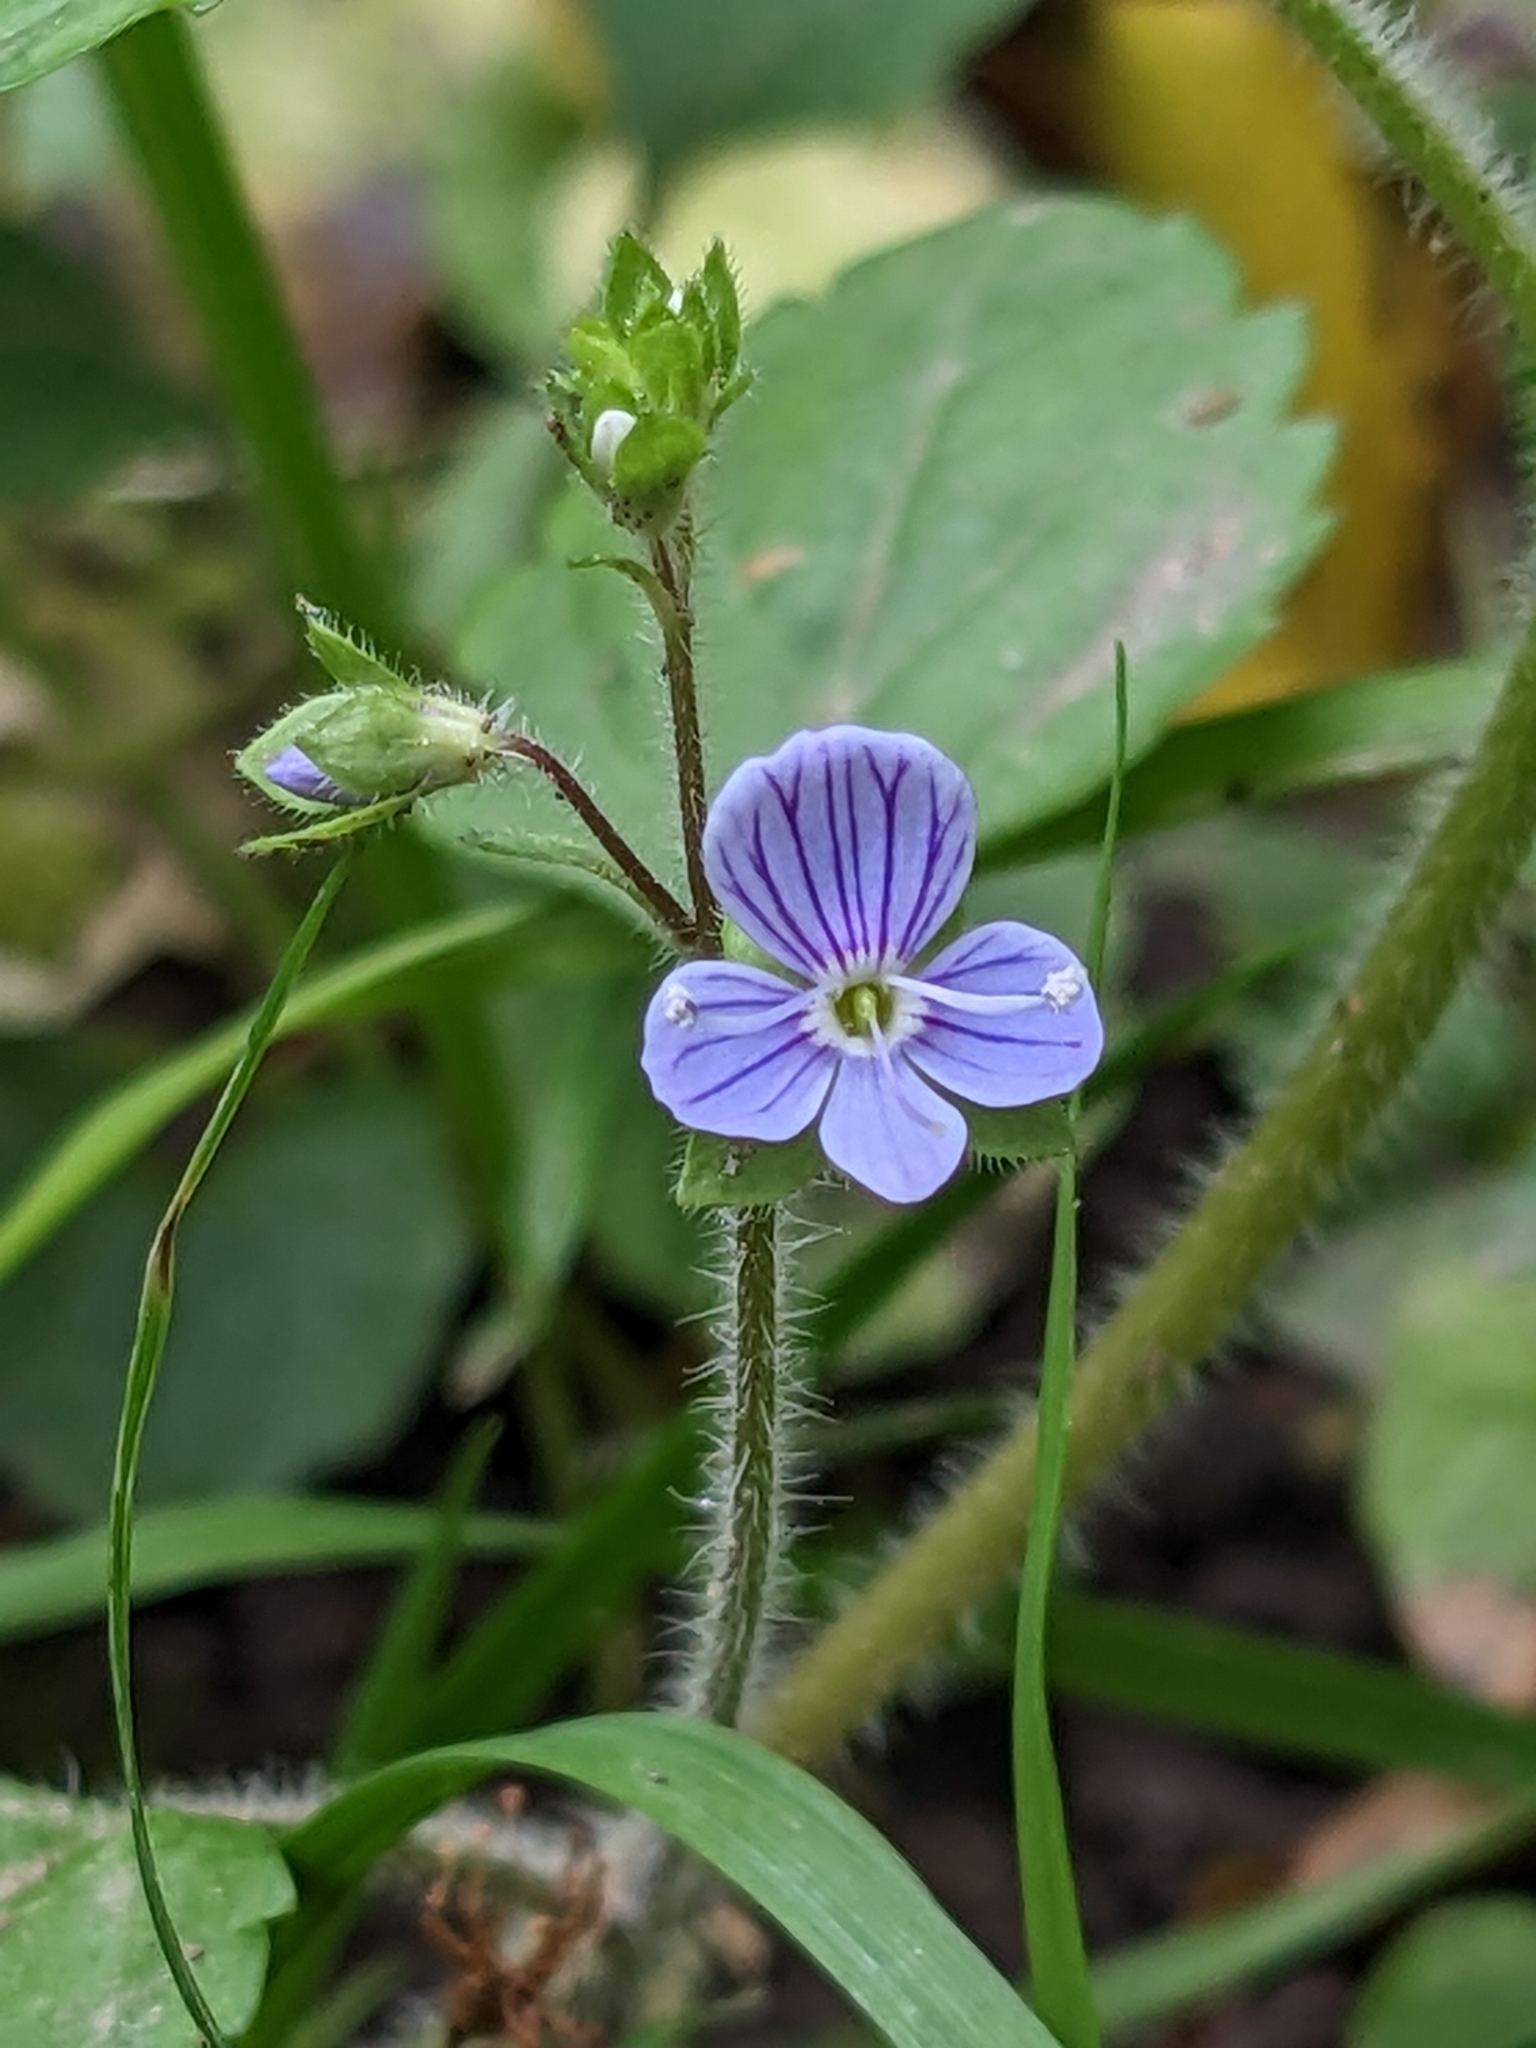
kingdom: Plantae
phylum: Tracheophyta
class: Magnoliopsida
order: Lamiales
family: Plantaginaceae
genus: Veronica
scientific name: Veronica montana
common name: Wood speedwell
